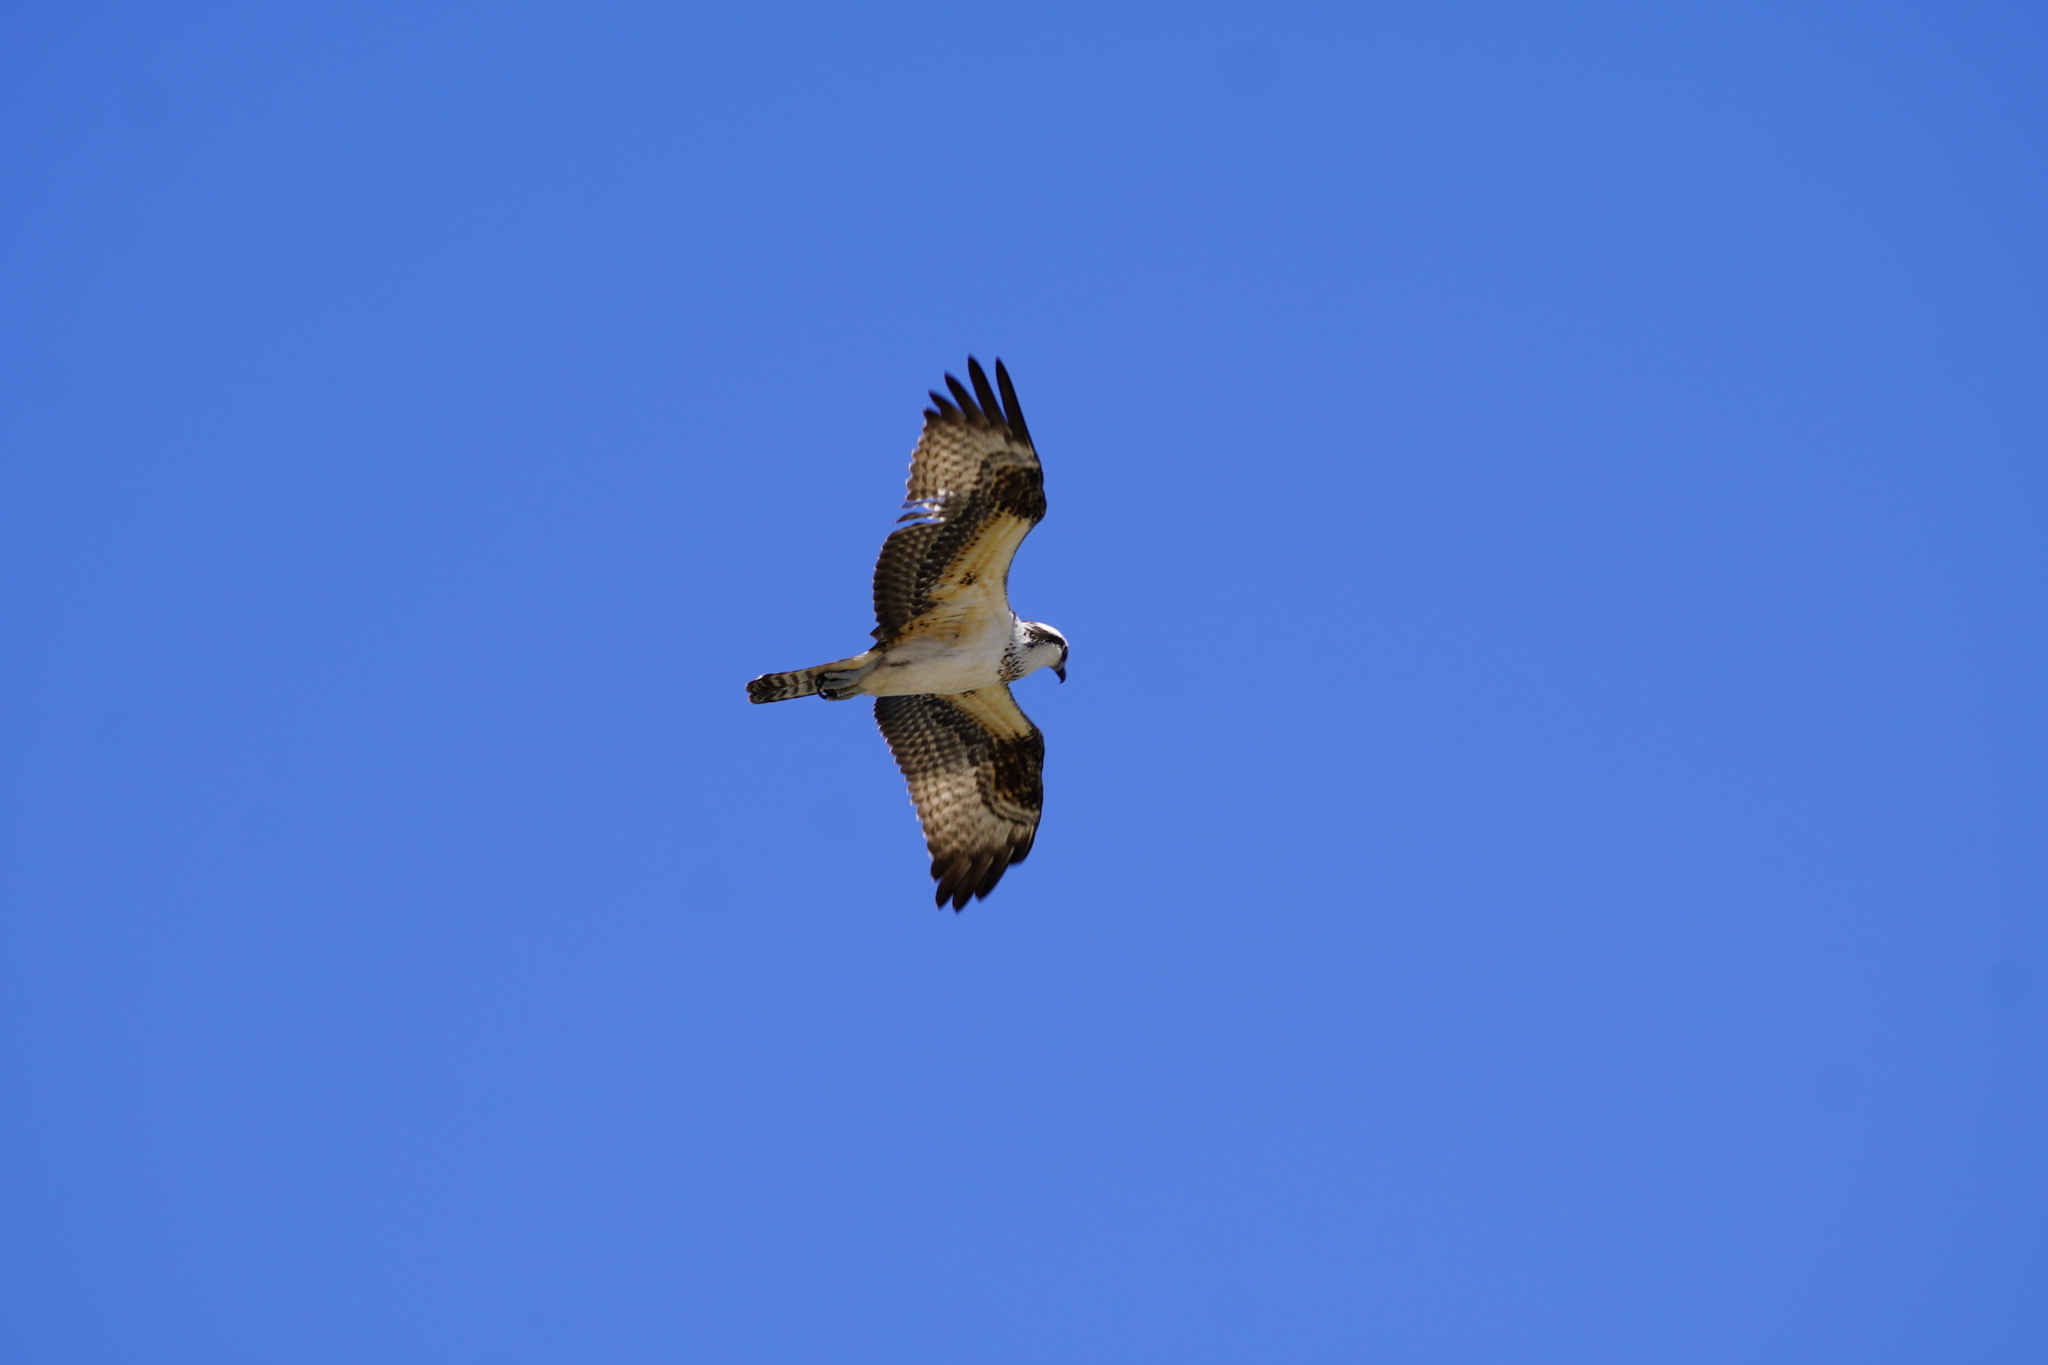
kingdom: Animalia
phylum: Chordata
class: Aves
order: Accipitriformes
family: Pandionidae
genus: Pandion
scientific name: Pandion haliaetus
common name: Osprey
